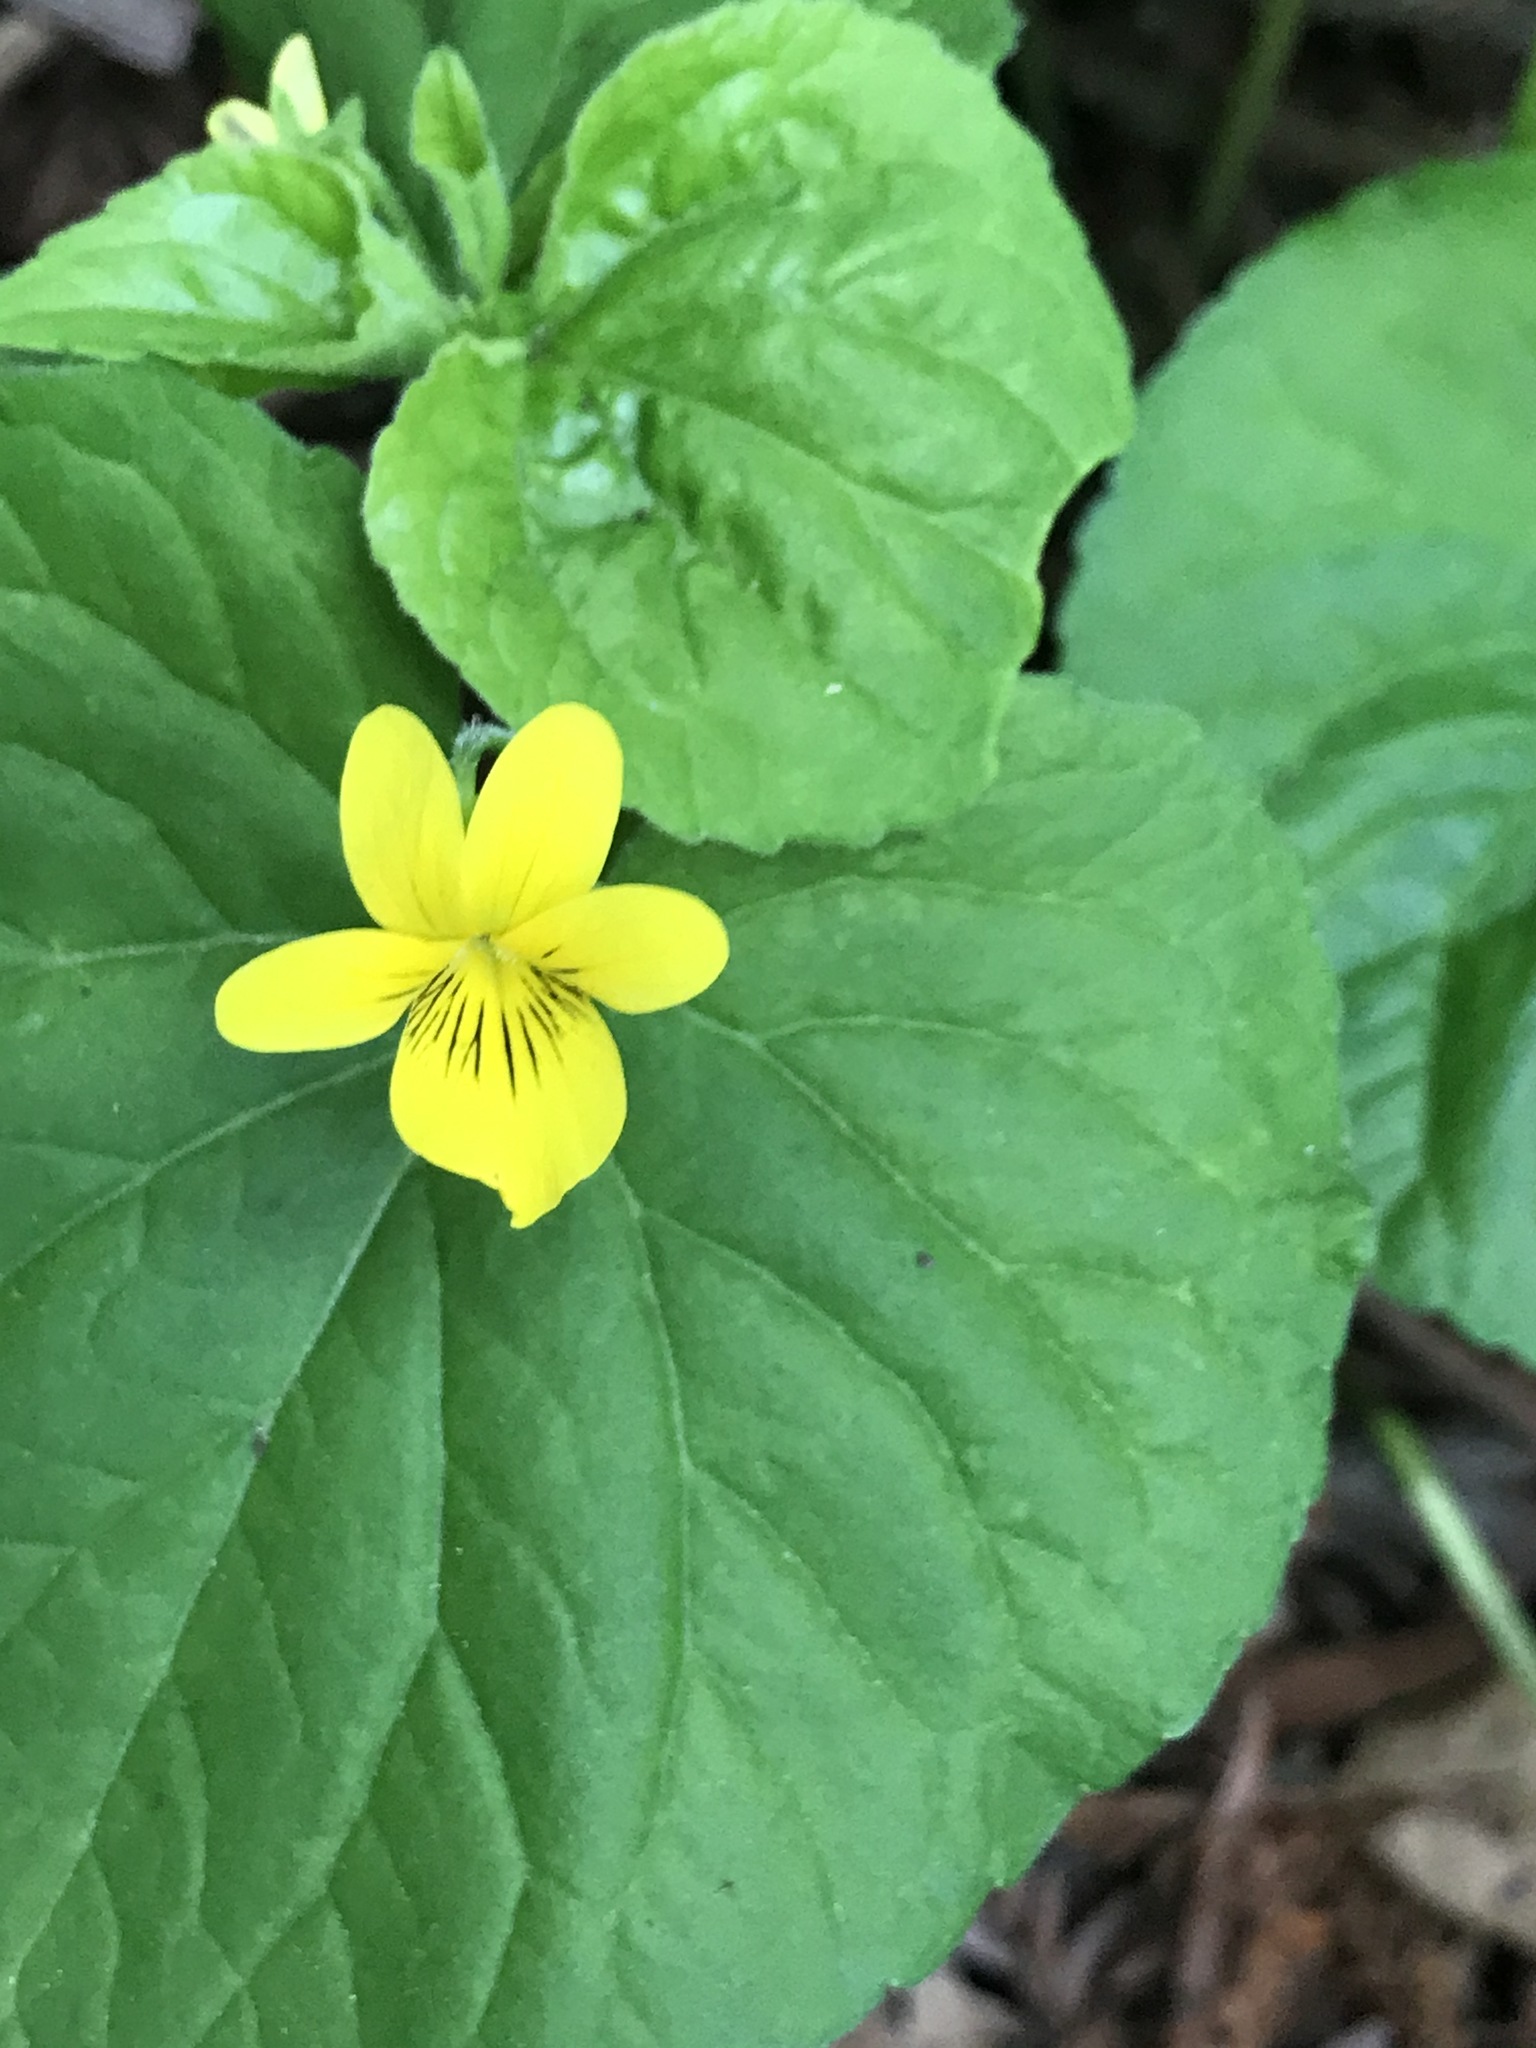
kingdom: Plantae
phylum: Tracheophyta
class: Magnoliopsida
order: Malpighiales
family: Violaceae
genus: Viola
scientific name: Viola glabella
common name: Stream violet
